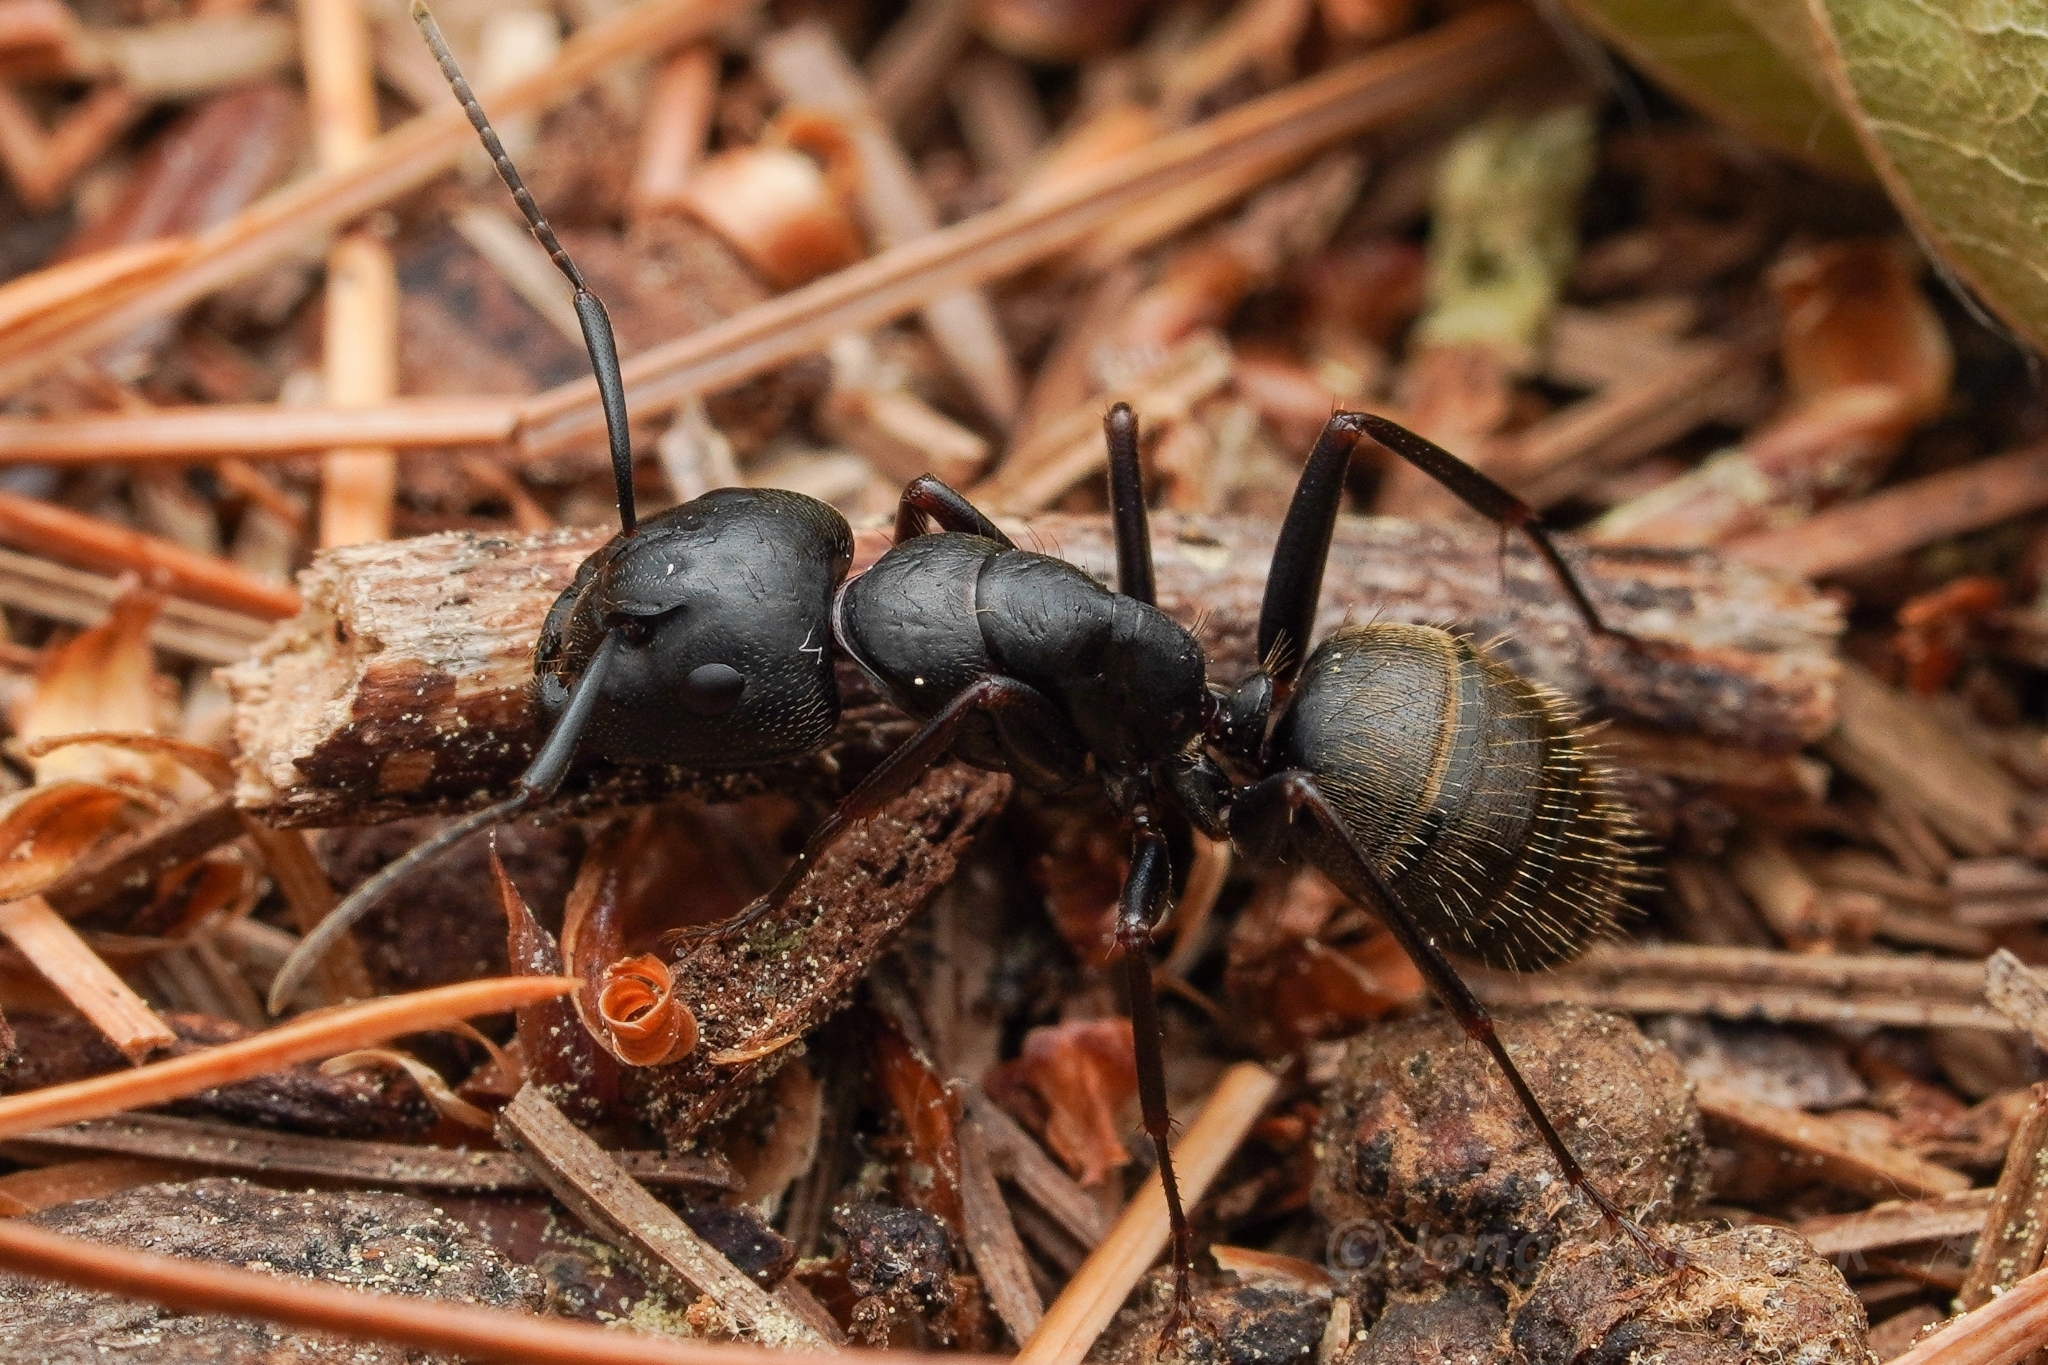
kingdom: Animalia
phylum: Arthropoda
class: Insecta
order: Hymenoptera
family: Formicidae
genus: Camponotus
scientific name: Camponotus pennsylvanicus
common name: Black carpenter ant
